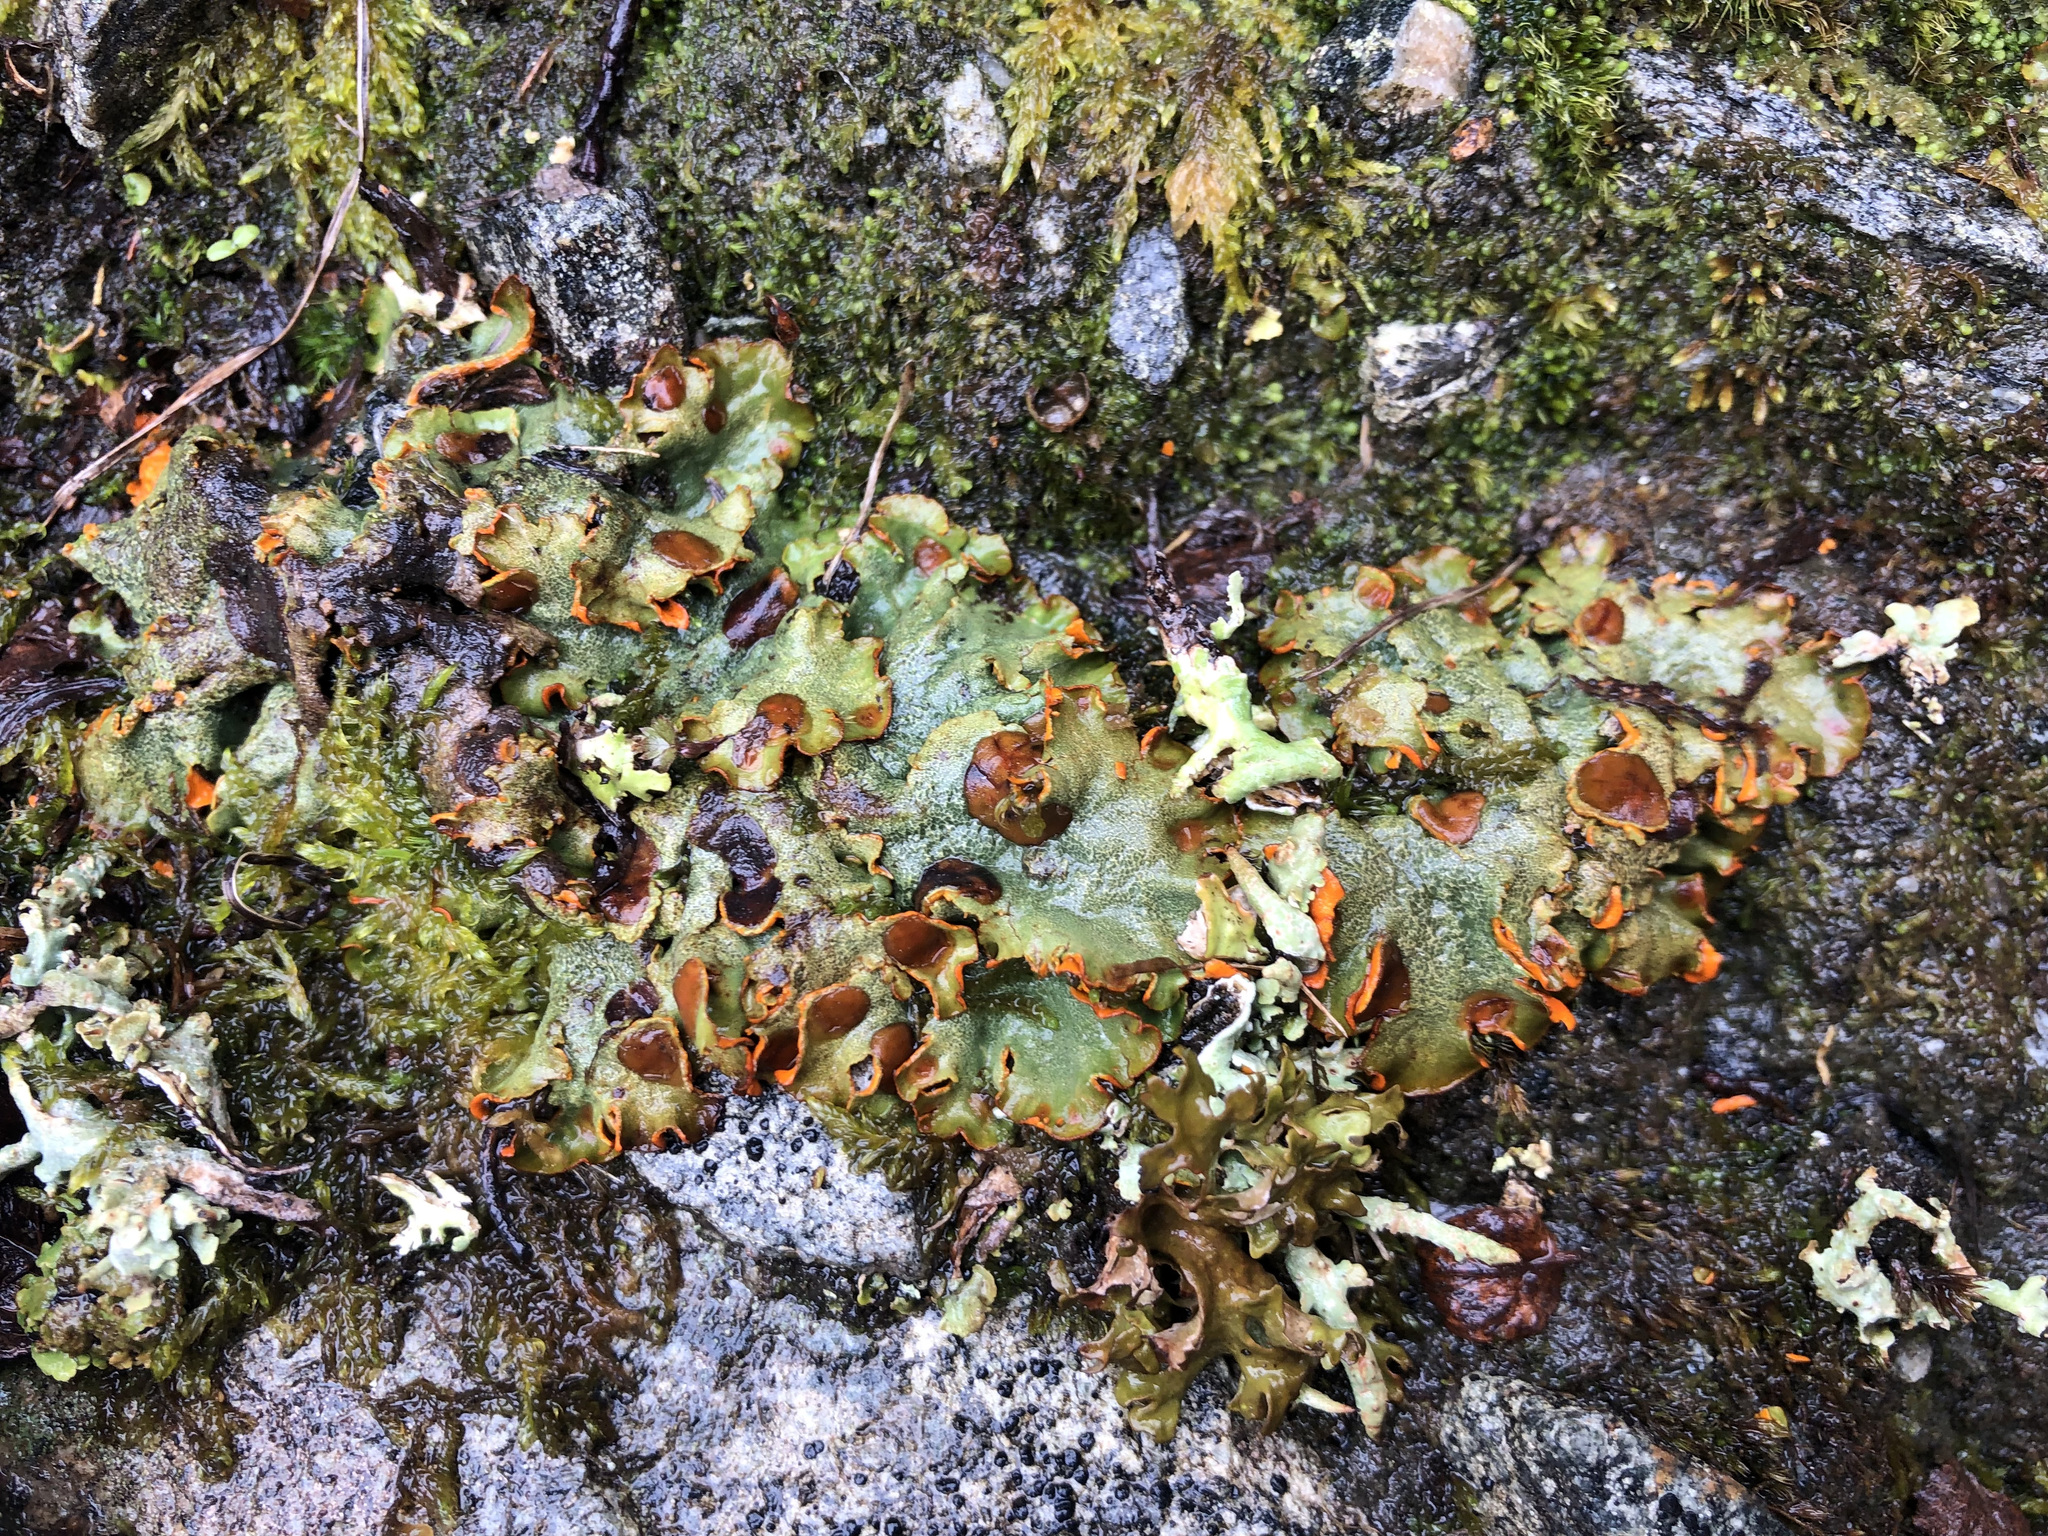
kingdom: Fungi
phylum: Ascomycota
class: Lecanoromycetes
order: Peltigerales
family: Peltigeraceae
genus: Solorina
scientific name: Solorina crocea
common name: Mountain saffron
